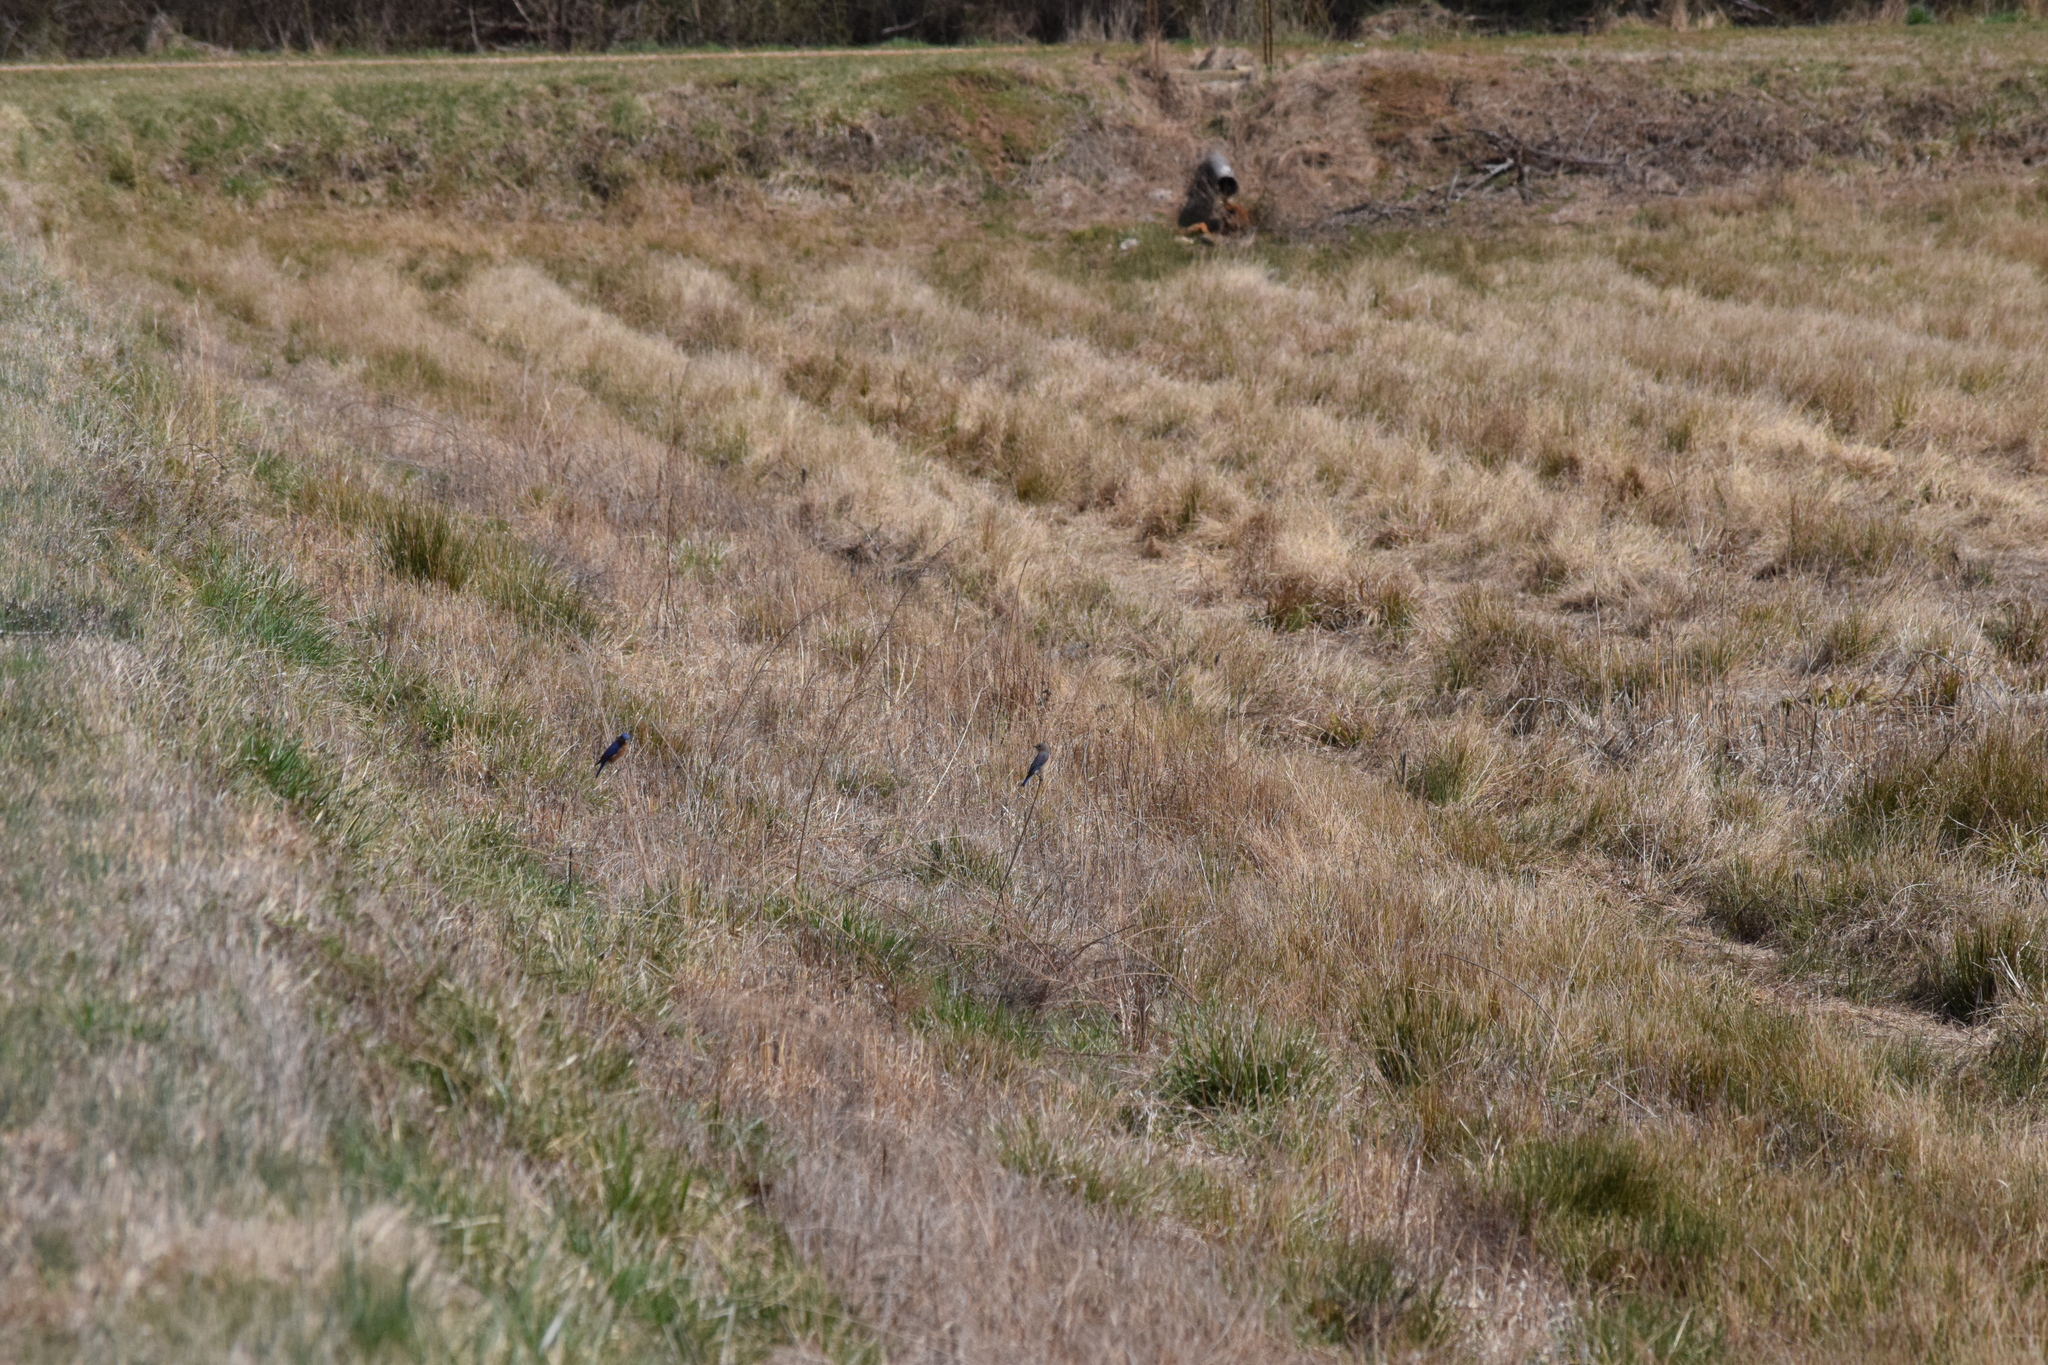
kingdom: Animalia
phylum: Chordata
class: Aves
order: Passeriformes
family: Turdidae
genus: Sialia
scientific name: Sialia sialis
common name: Eastern bluebird
